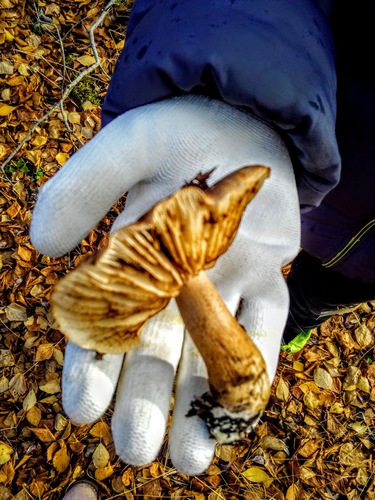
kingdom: Fungi
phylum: Basidiomycota
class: Agaricomycetes
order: Agaricales
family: Tricholomataceae
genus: Tricholoma
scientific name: Tricholoma
